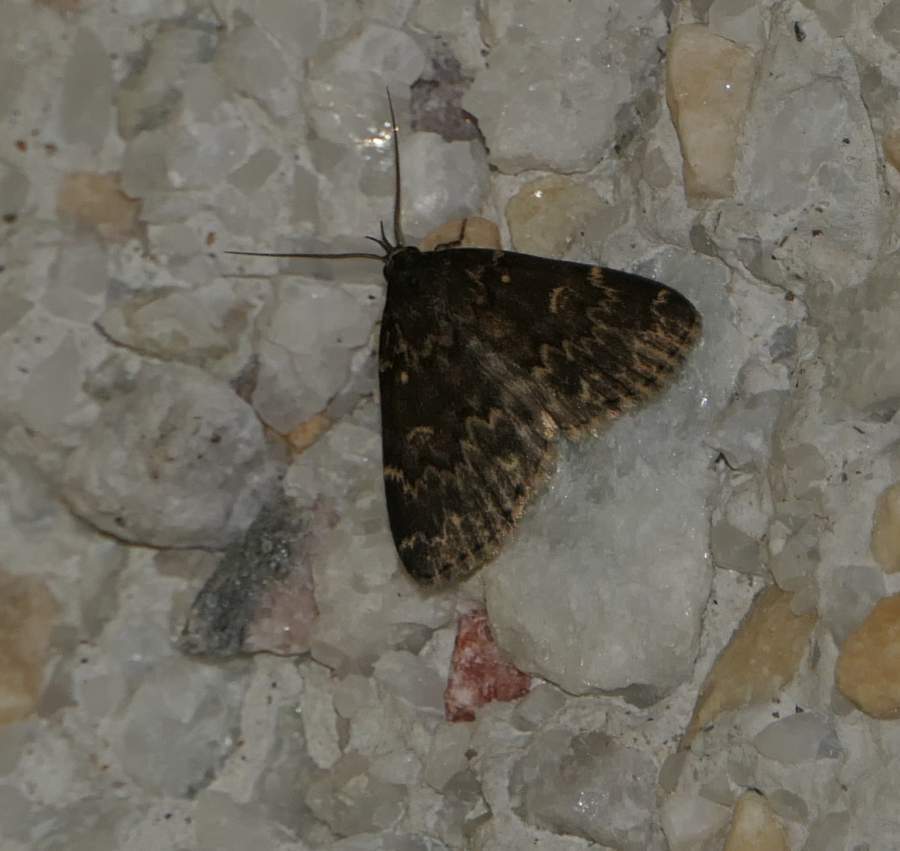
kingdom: Animalia
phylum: Arthropoda
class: Insecta
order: Lepidoptera
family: Erebidae
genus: Idia
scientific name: Idia lubricalis
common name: Twin-striped tabby
